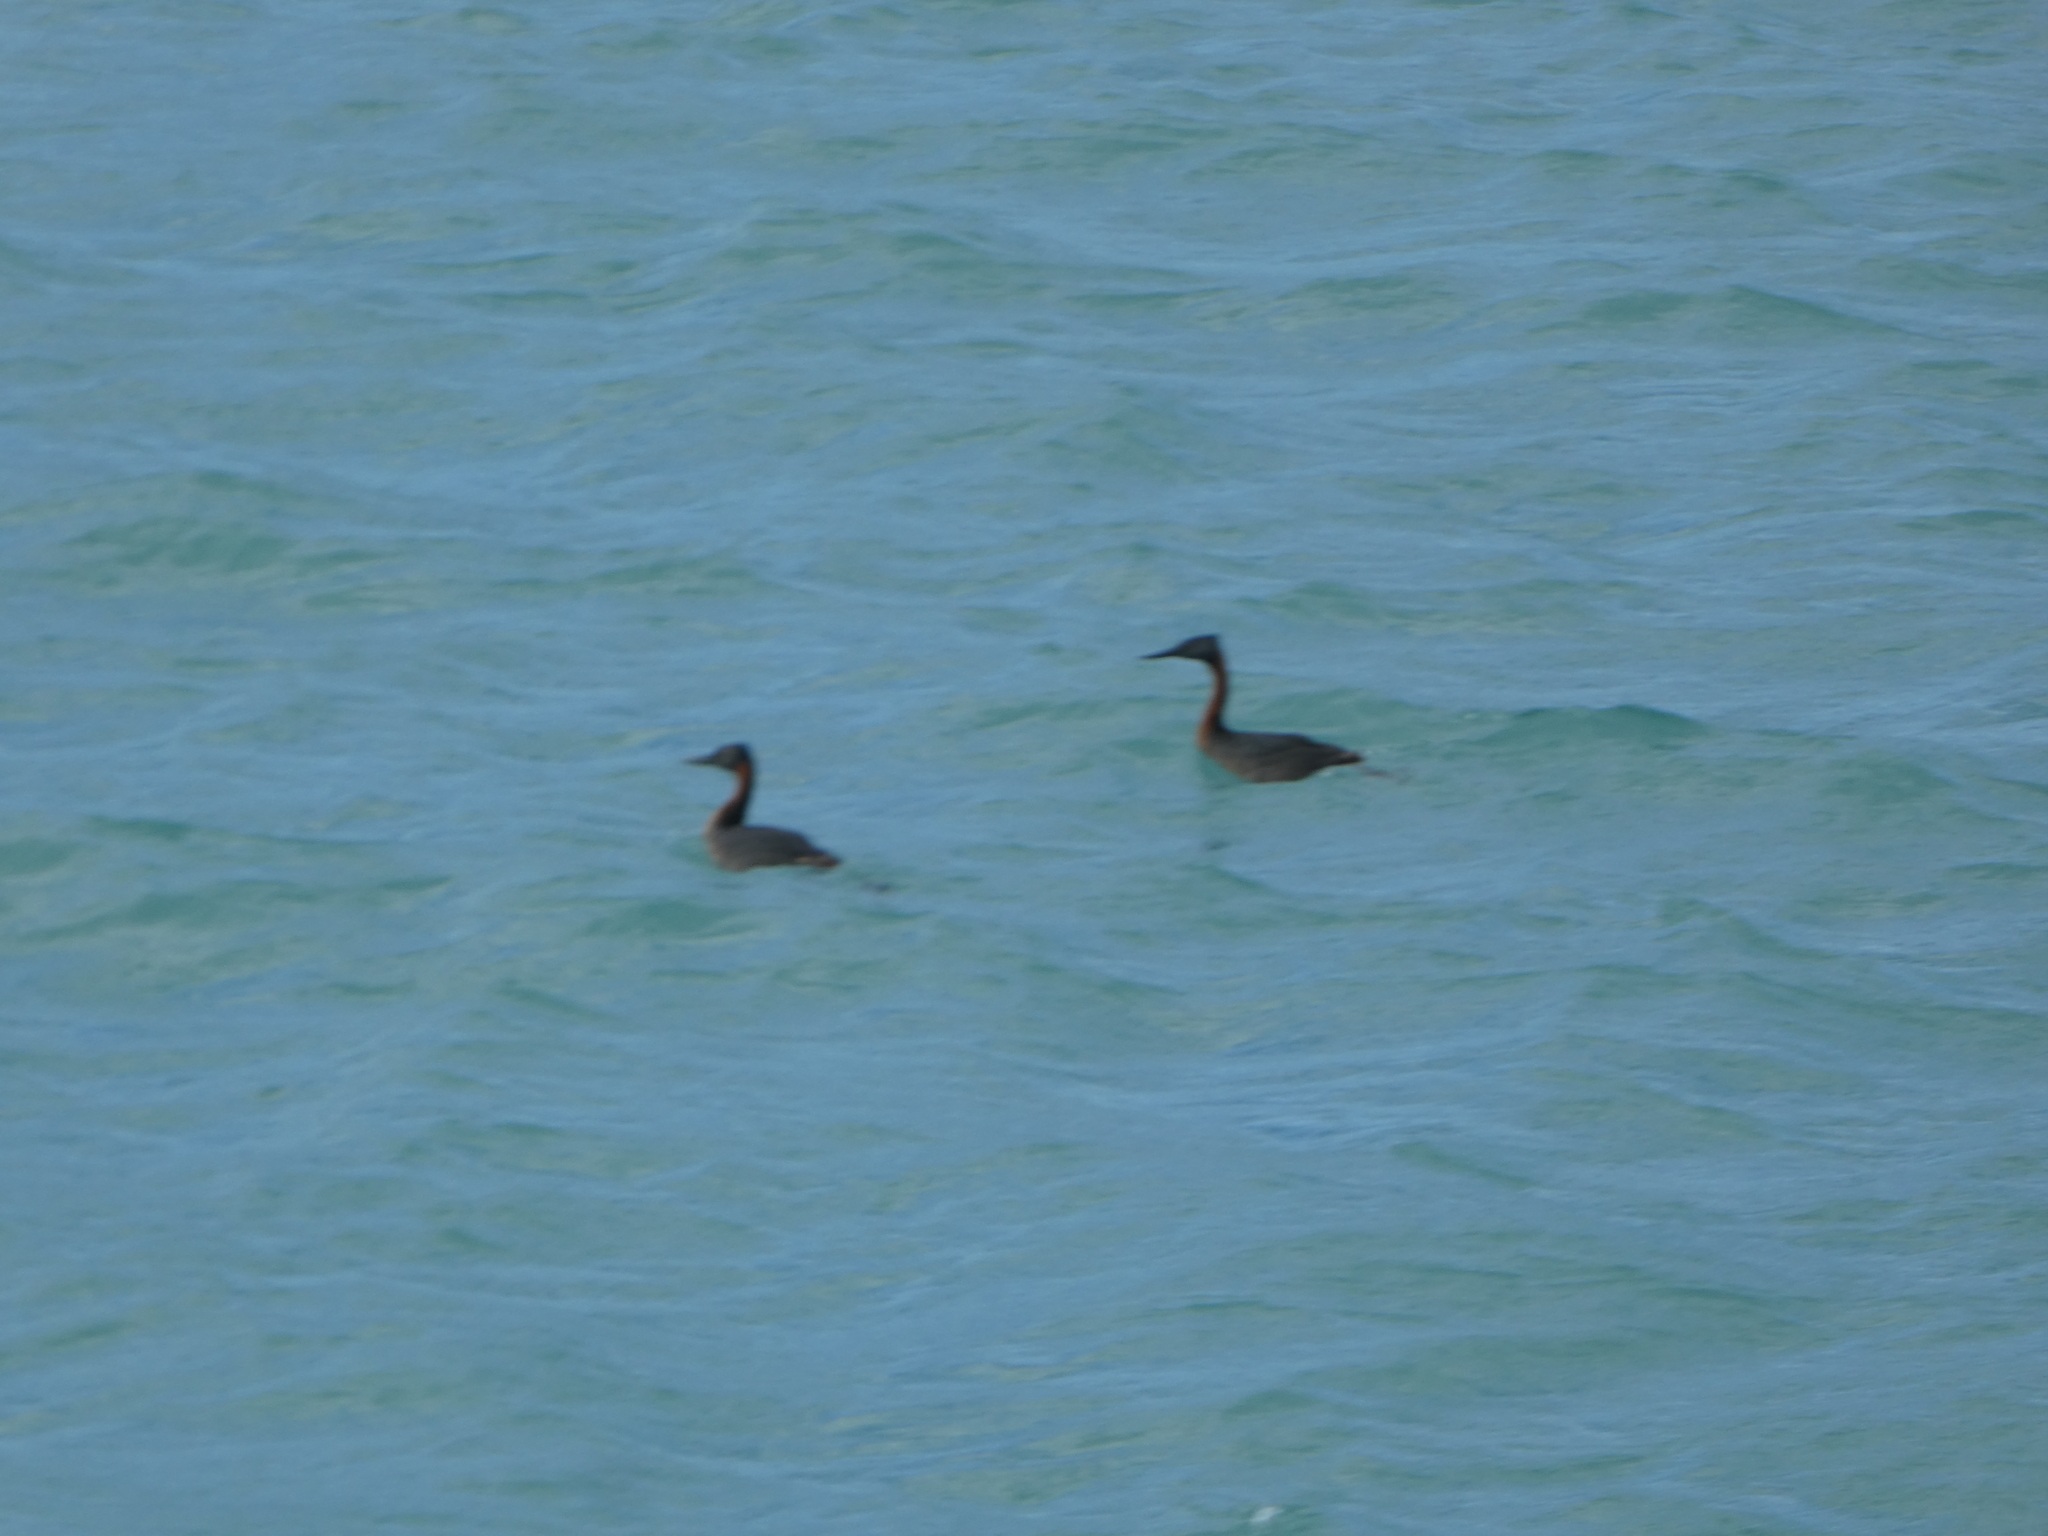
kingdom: Animalia
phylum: Chordata
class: Aves
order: Podicipediformes
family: Podicipedidae
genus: Podiceps
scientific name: Podiceps major
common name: Great grebe
